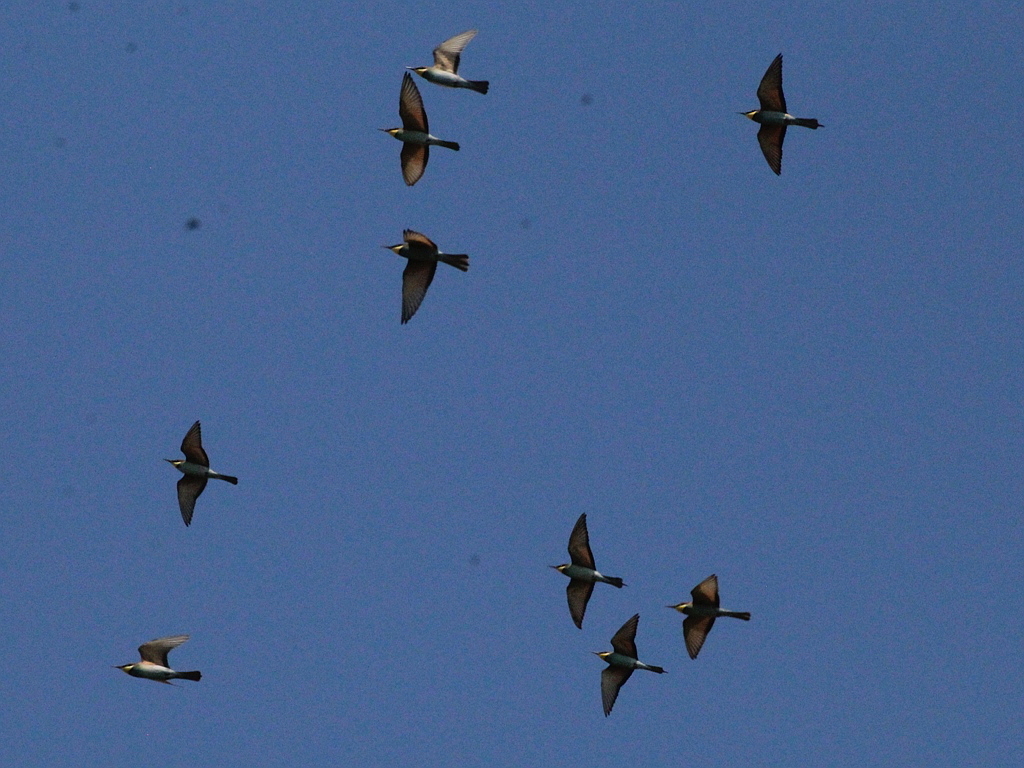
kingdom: Animalia
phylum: Chordata
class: Aves
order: Coraciiformes
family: Meropidae
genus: Merops
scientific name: Merops apiaster
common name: European bee-eater
